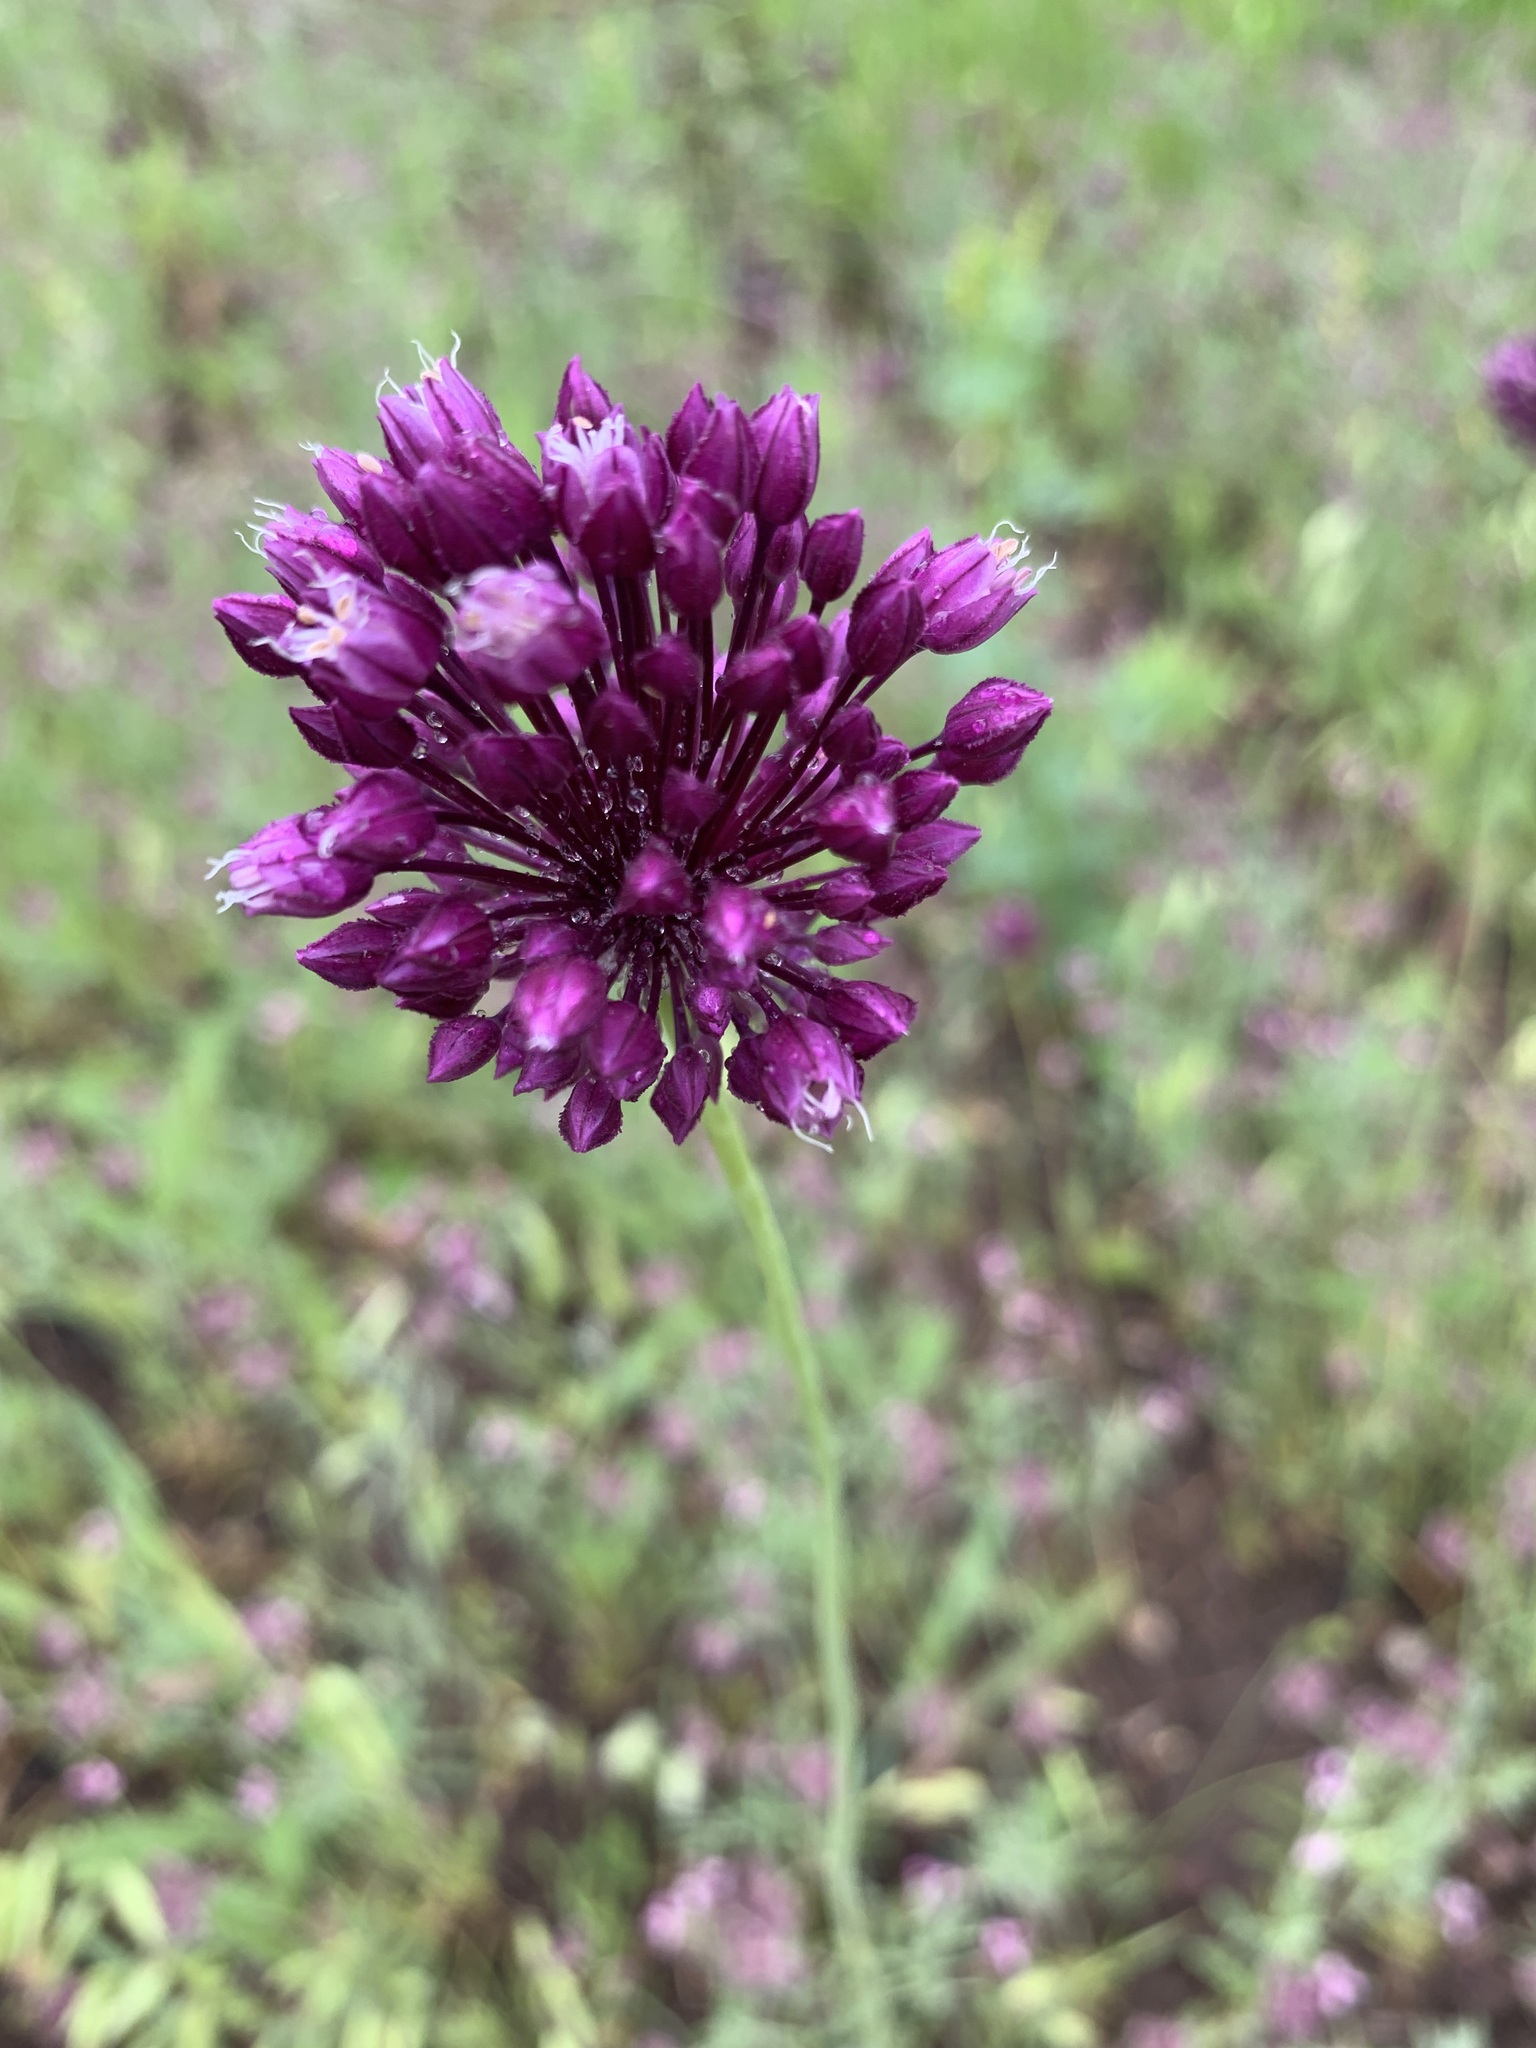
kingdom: Plantae
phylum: Tracheophyta
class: Liliopsida
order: Asparagales
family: Amaryllidaceae
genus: Allium
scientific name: Allium rotundum
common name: Sand leek
